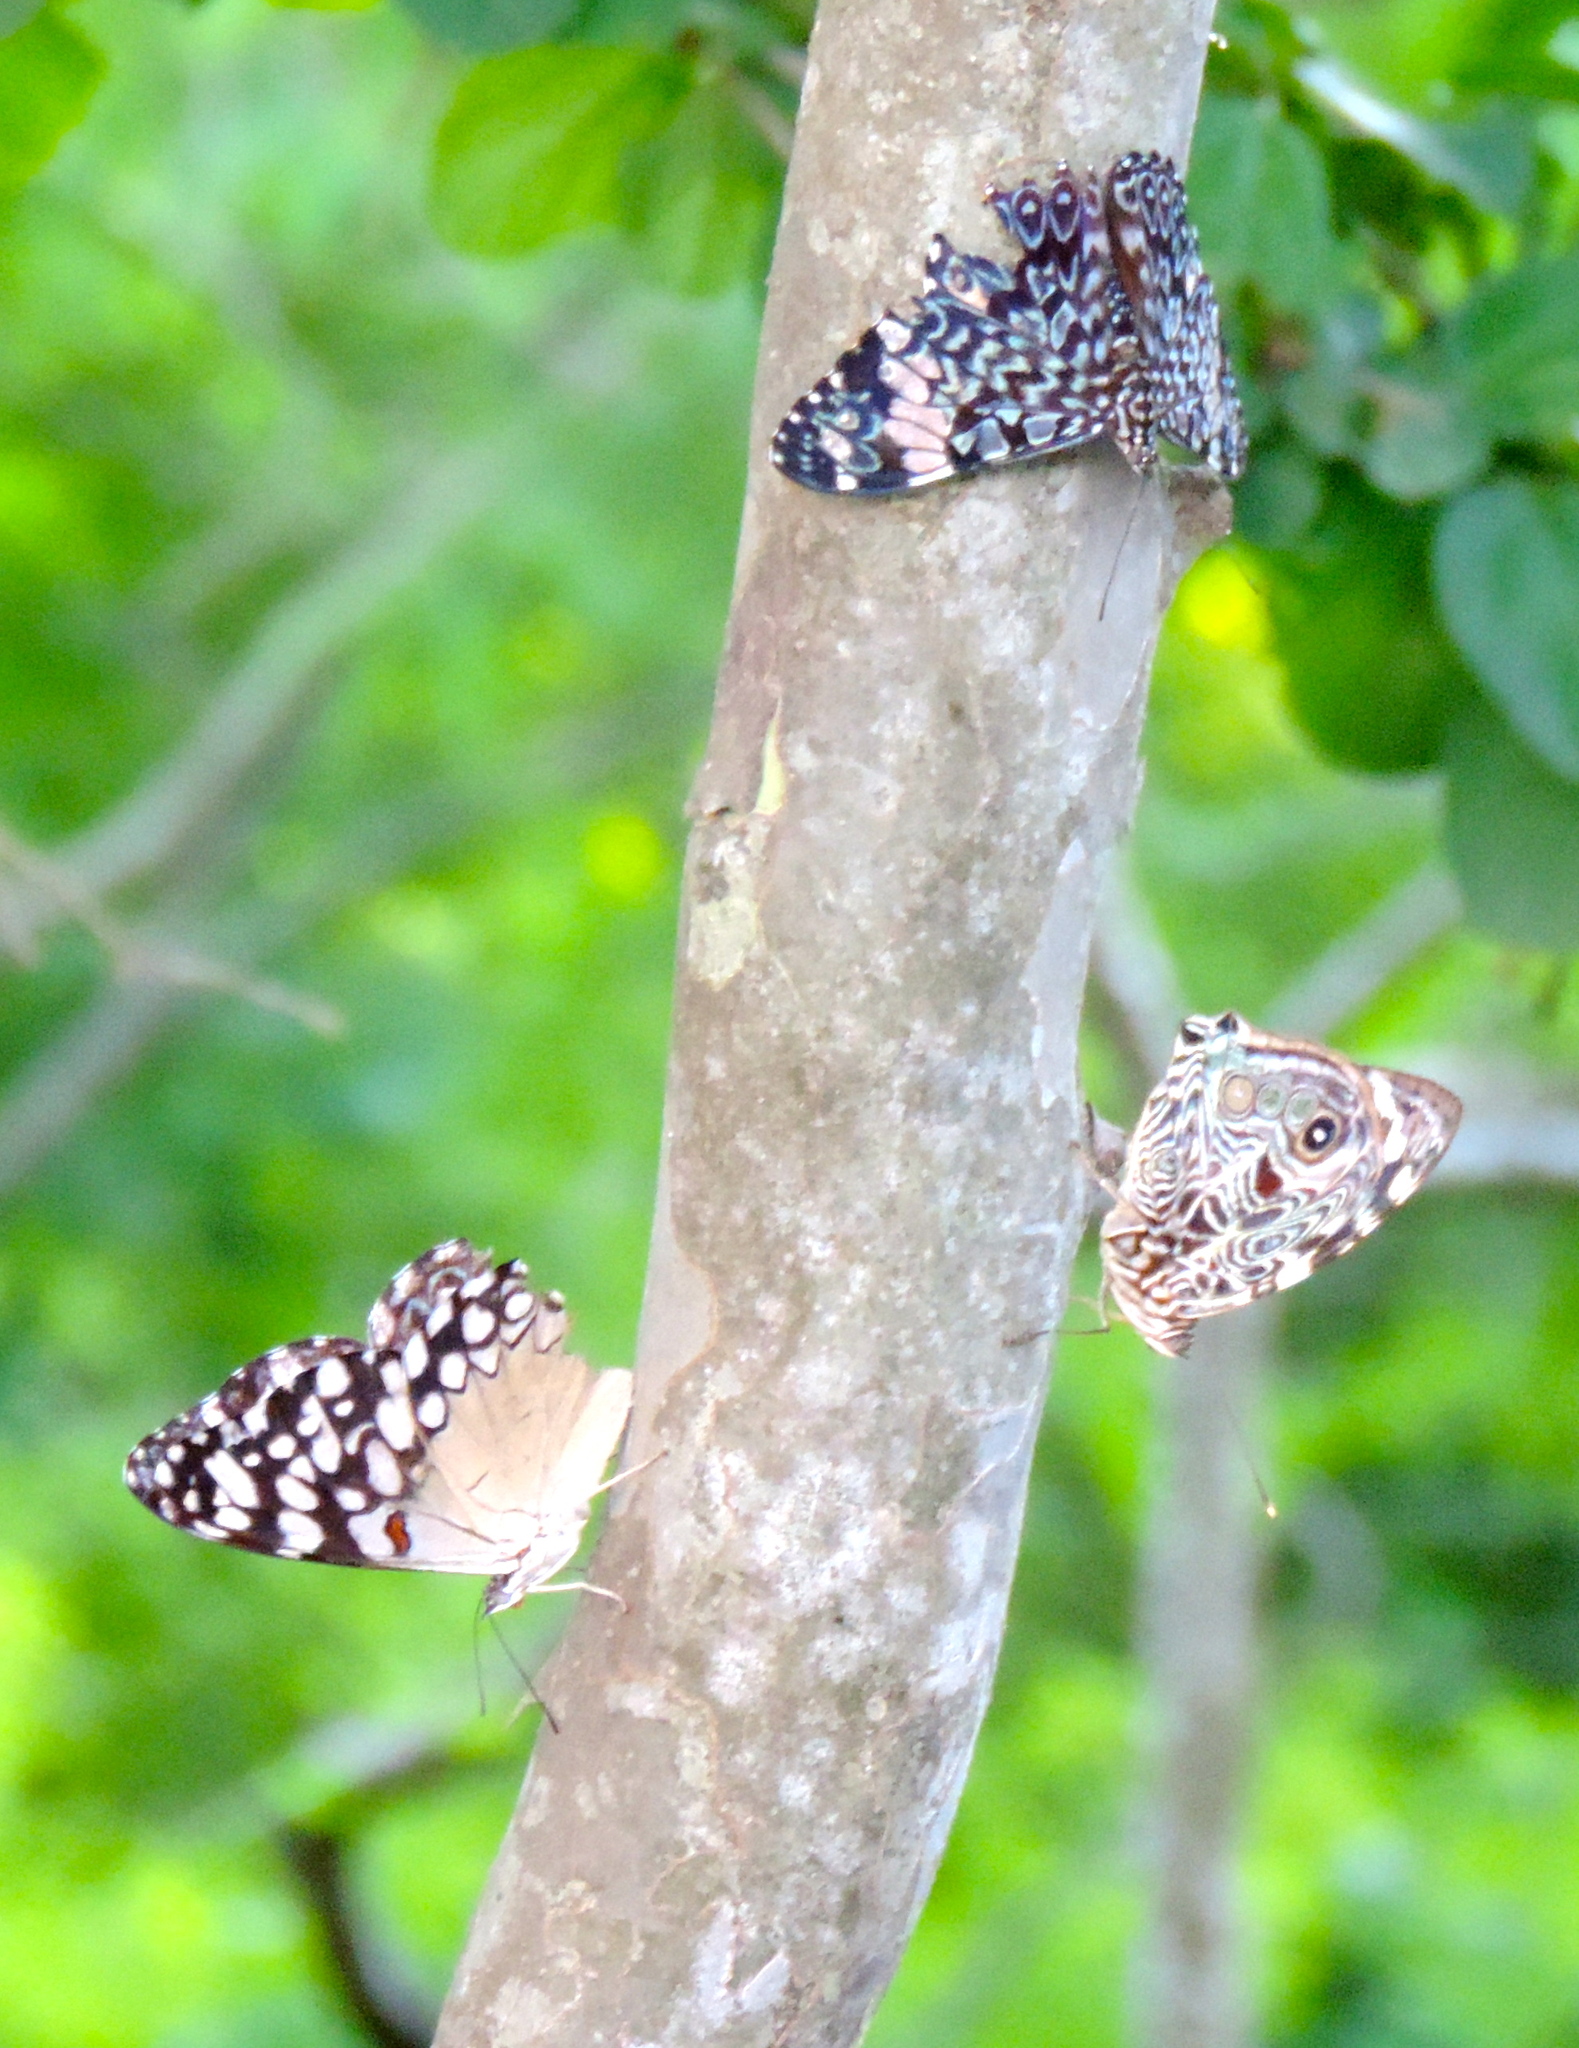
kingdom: Animalia
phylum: Arthropoda
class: Insecta
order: Lepidoptera
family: Nymphalidae
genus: Hamadryas
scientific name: Hamadryas amphinome
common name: Red cracker
